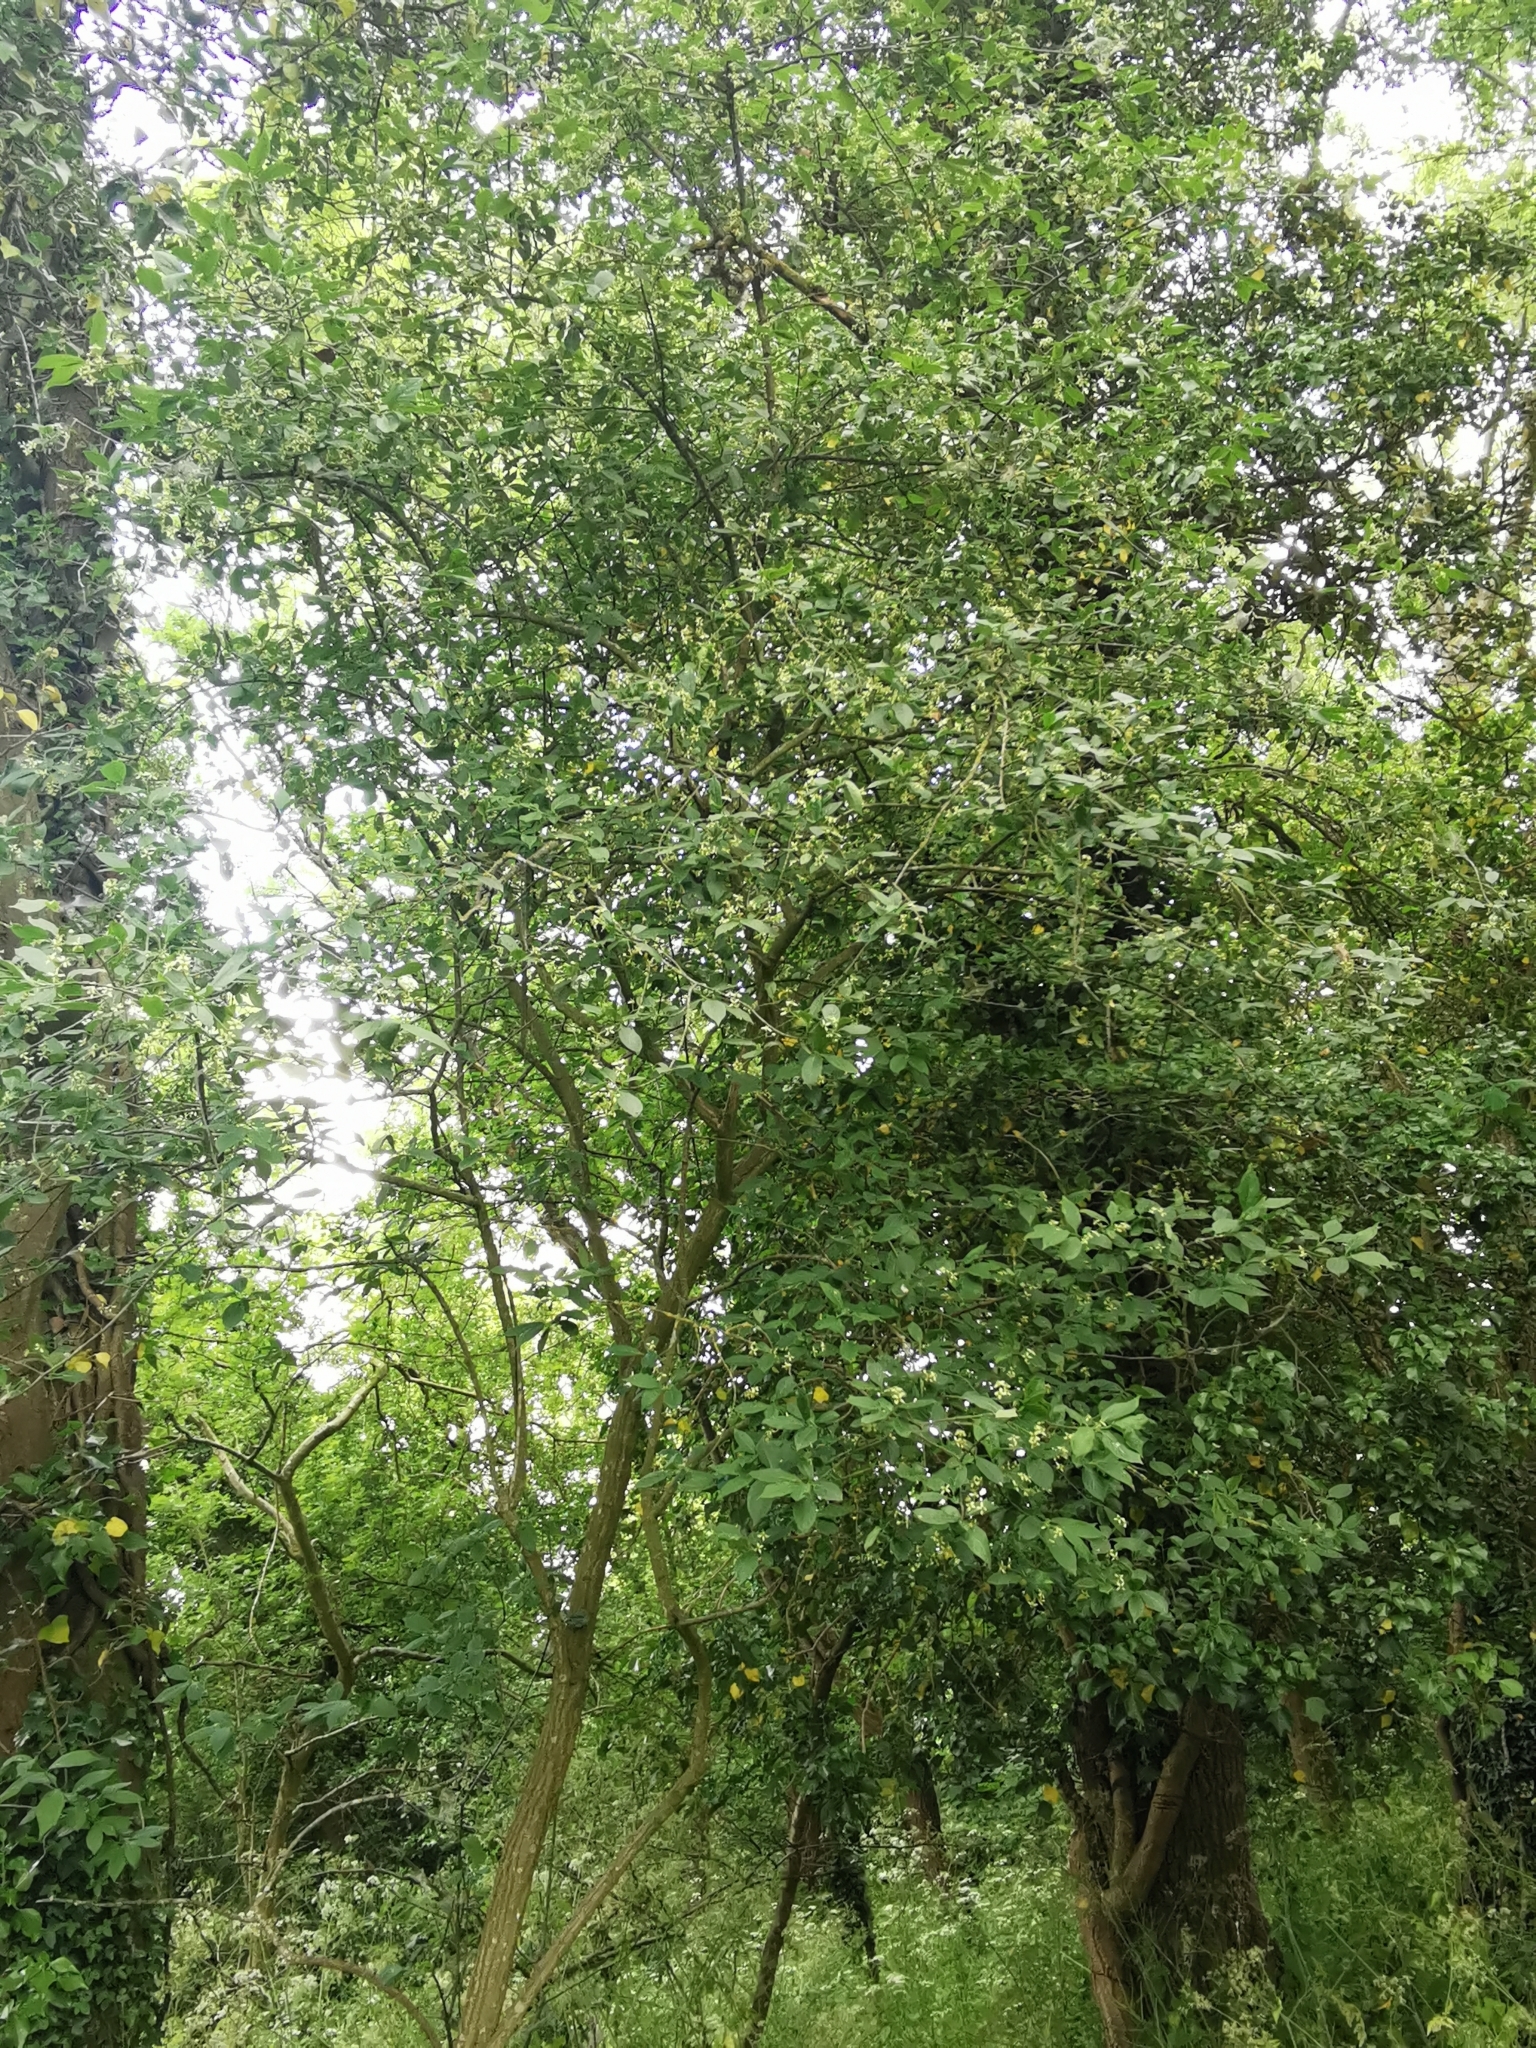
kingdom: Plantae
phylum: Tracheophyta
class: Magnoliopsida
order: Celastrales
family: Celastraceae
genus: Euonymus
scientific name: Euonymus europaeus
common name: Spindle
